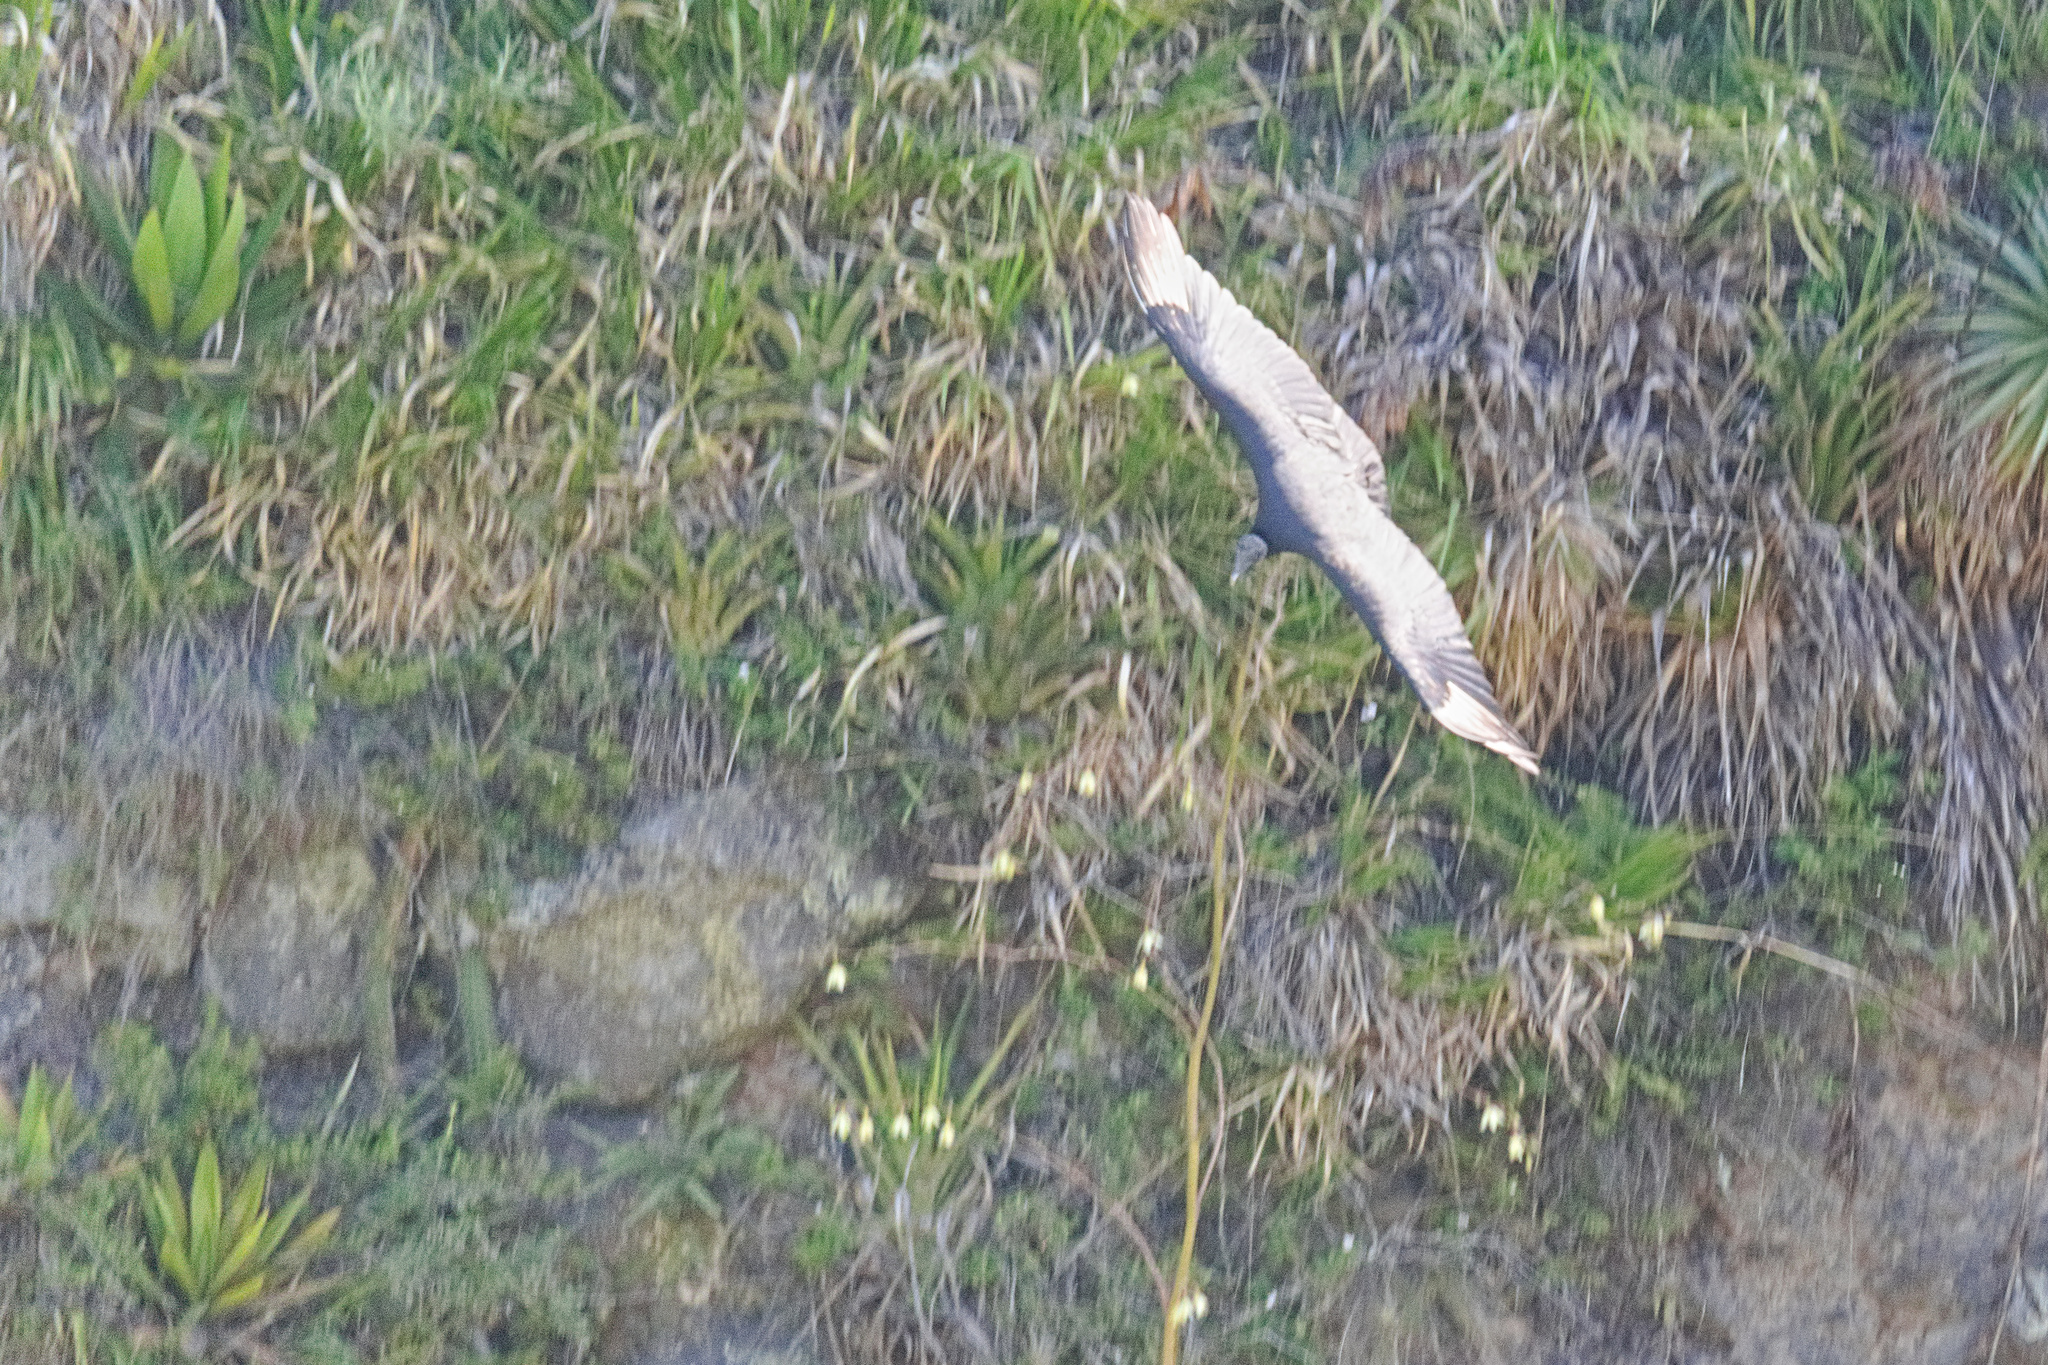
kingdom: Animalia
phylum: Chordata
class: Aves
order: Accipitriformes
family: Cathartidae
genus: Coragyps
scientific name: Coragyps atratus
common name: Black vulture
